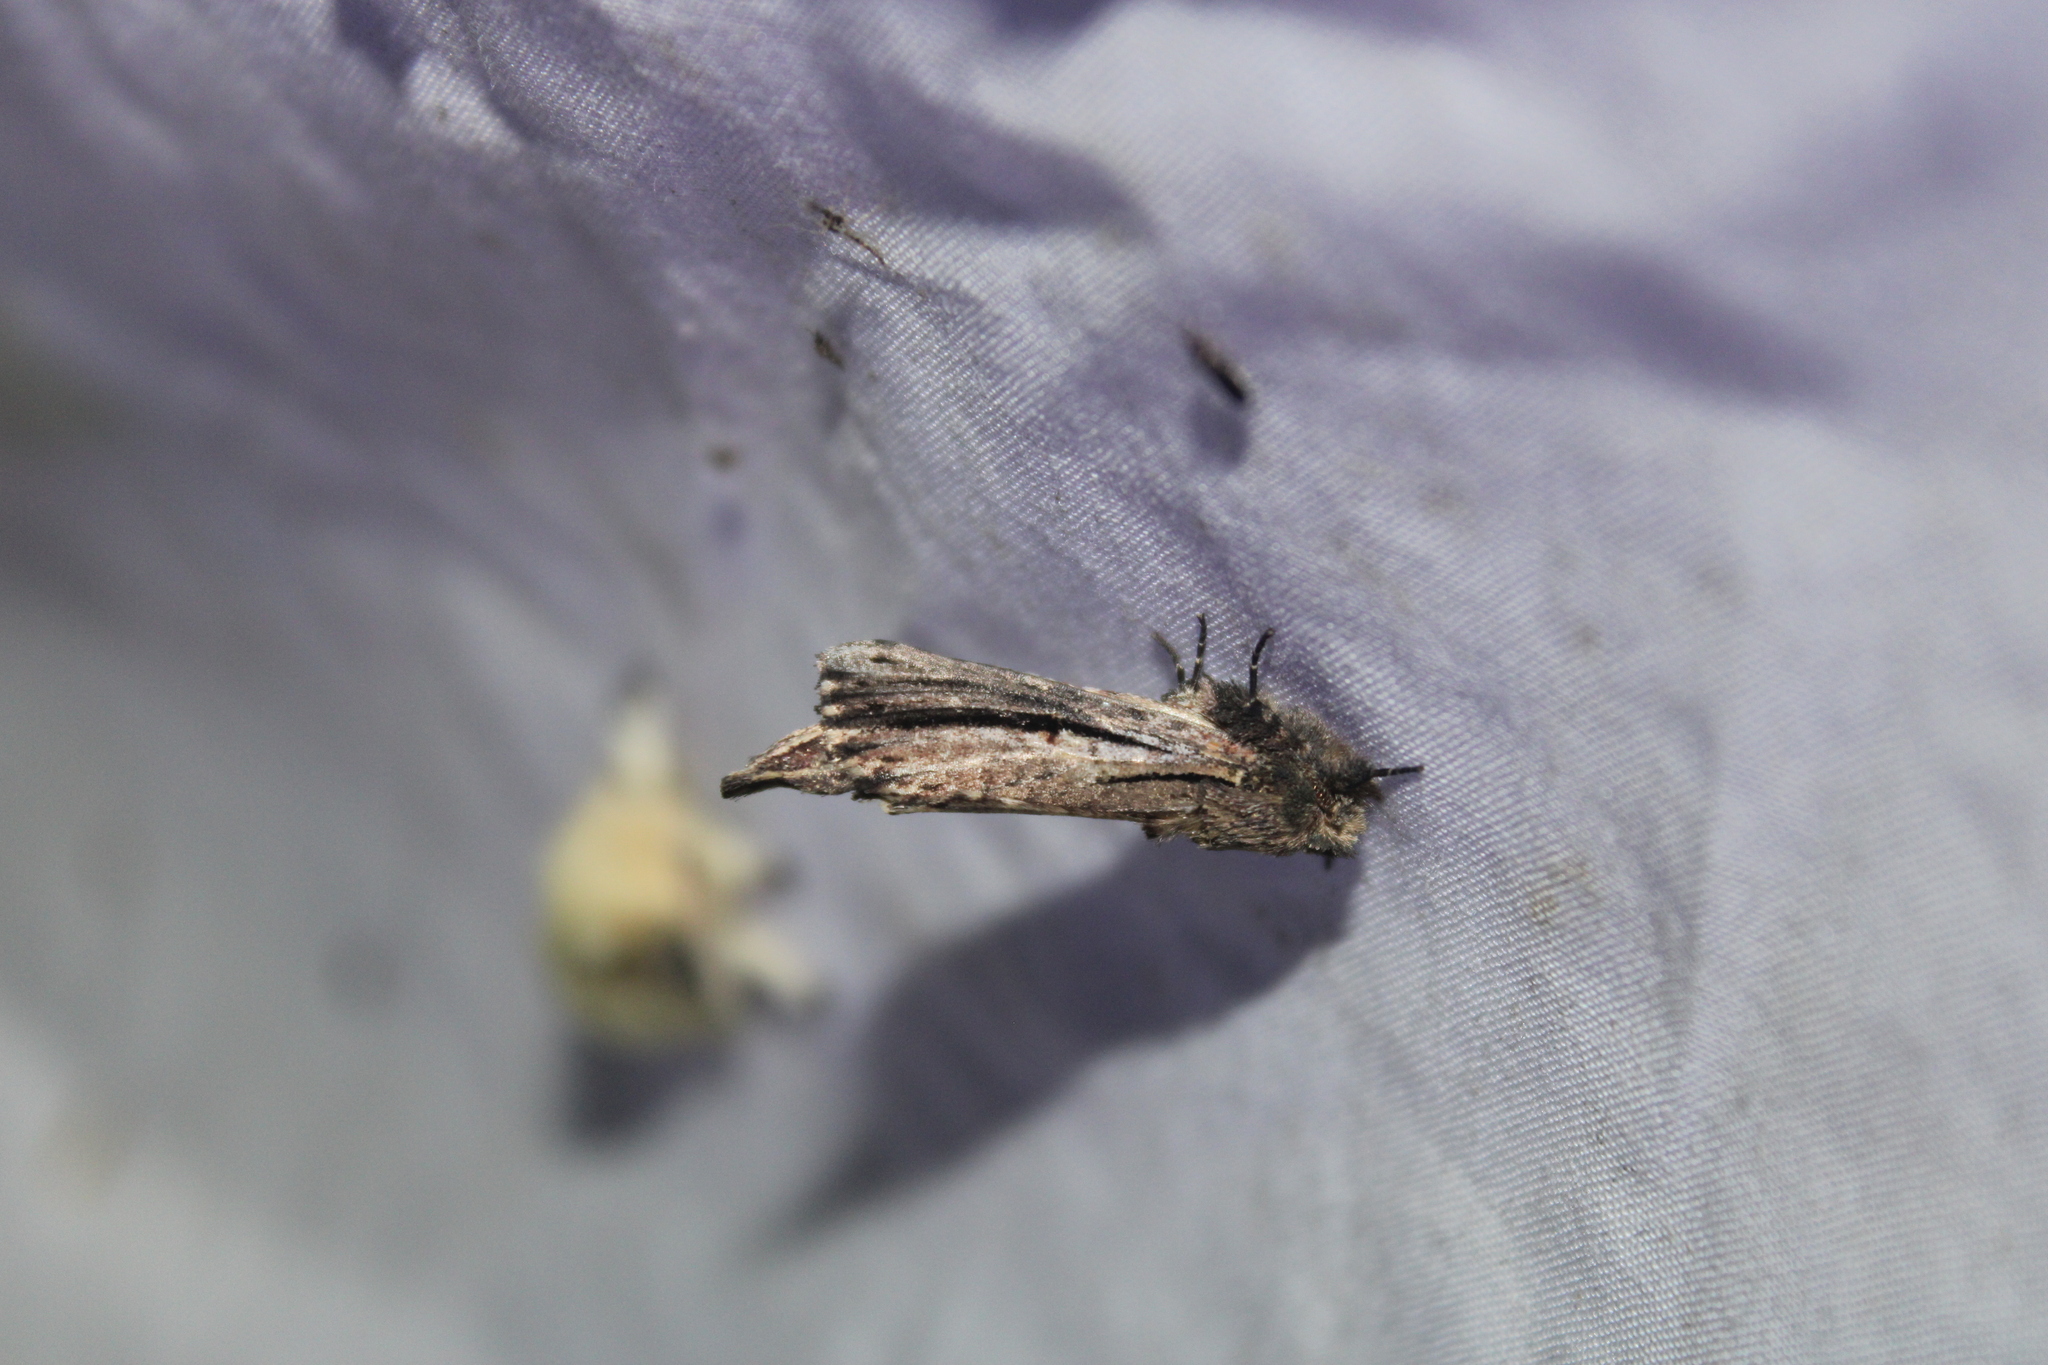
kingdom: Animalia
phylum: Arthropoda
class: Insecta
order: Lepidoptera
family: Notodontidae
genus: Schizura
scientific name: Schizura ipomaeae
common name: Morning-glory prominent
